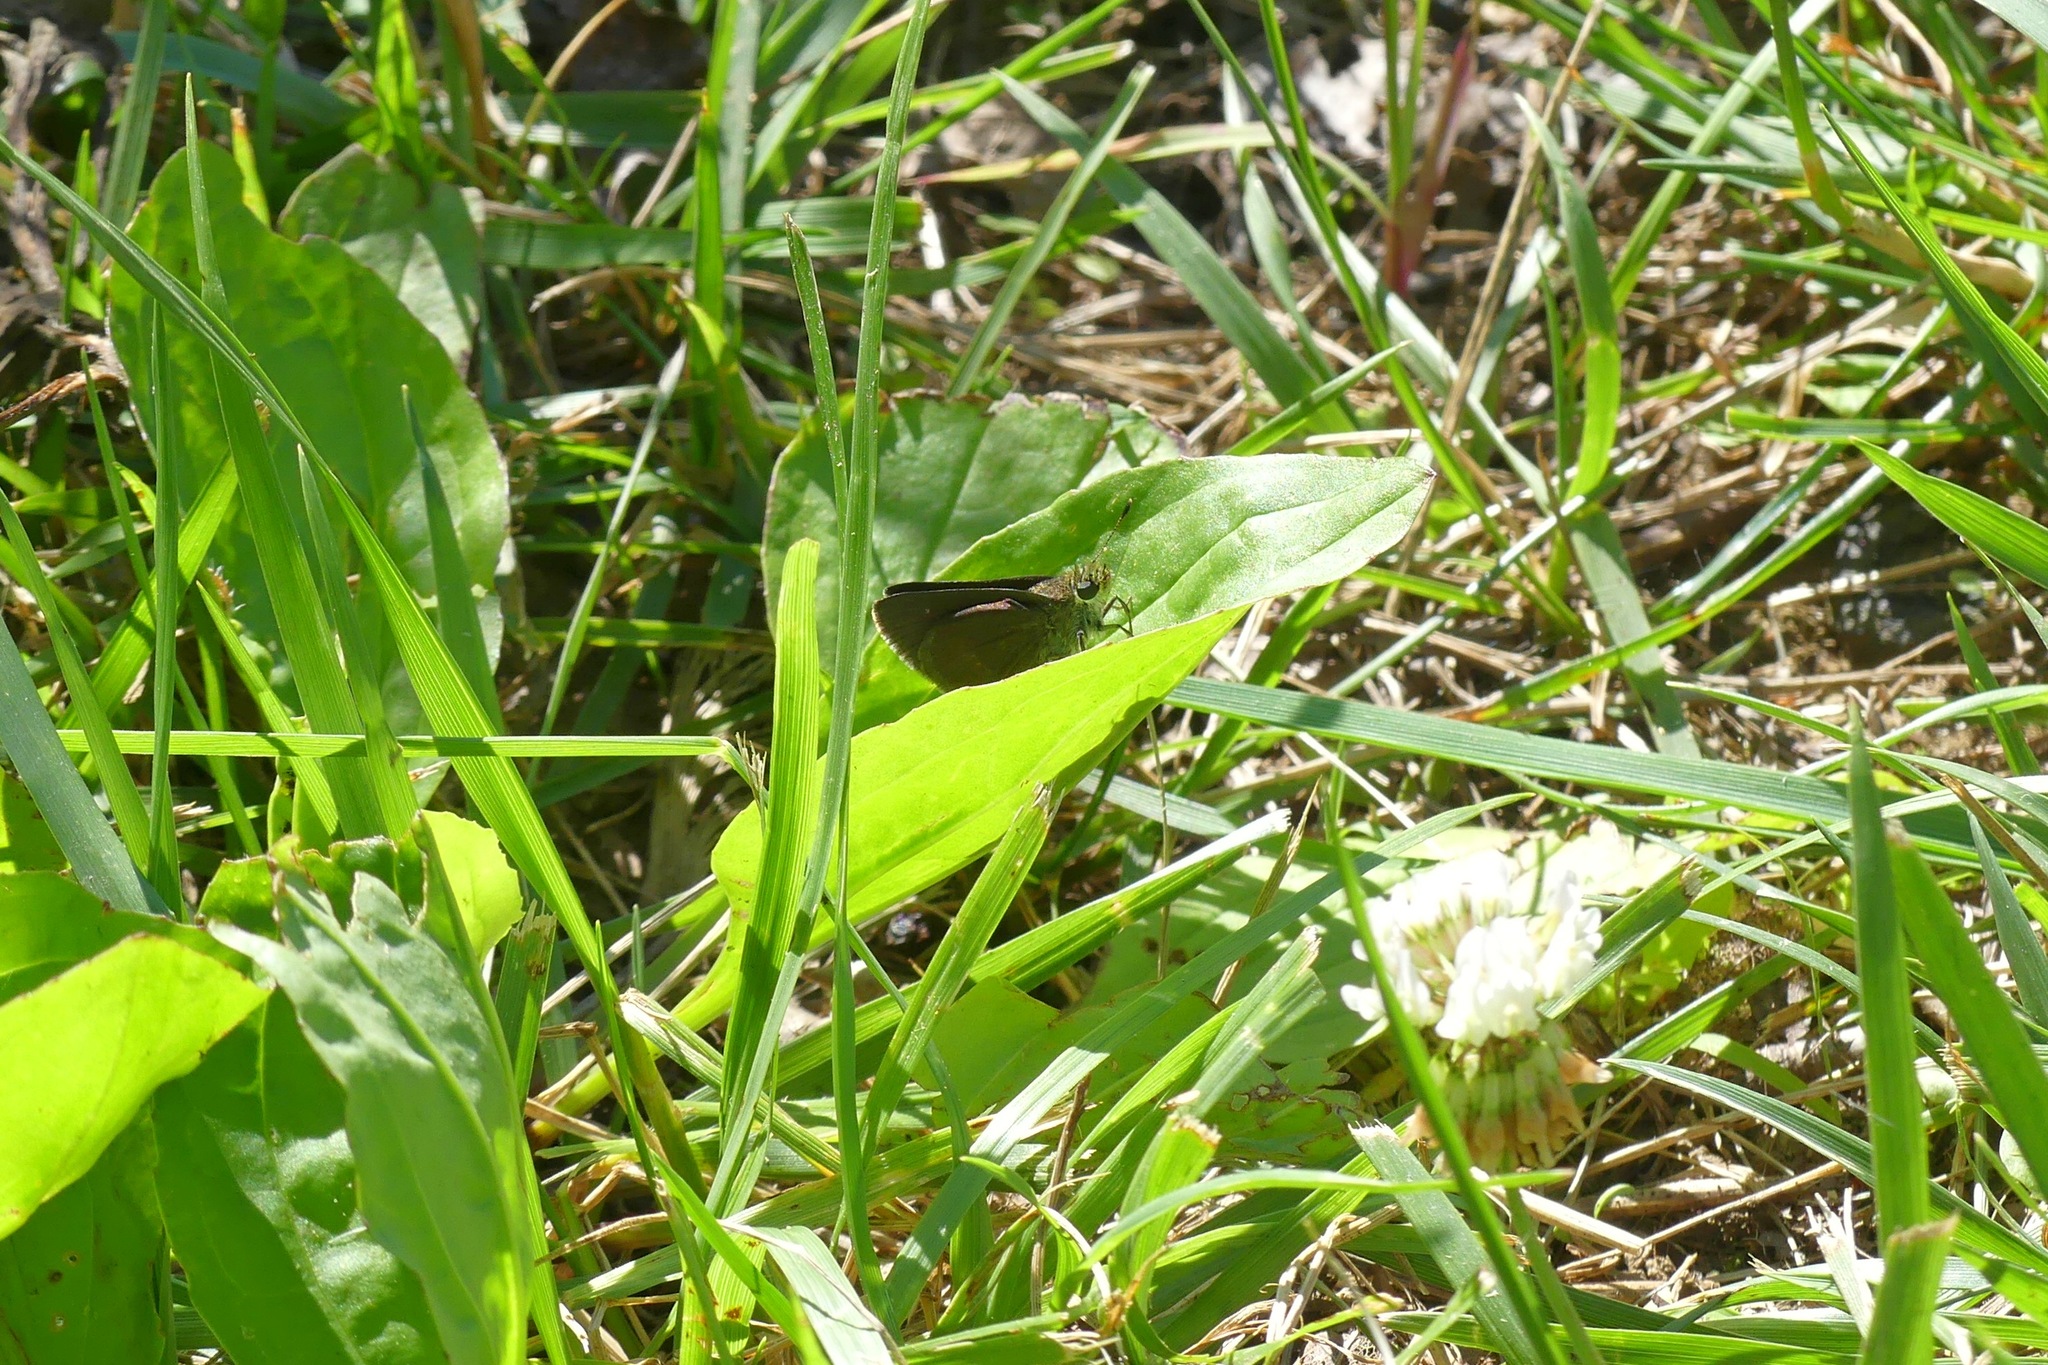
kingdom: Animalia
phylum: Arthropoda
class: Insecta
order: Lepidoptera
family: Hesperiidae
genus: Euphyes
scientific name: Euphyes vestris
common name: Dun skipper
